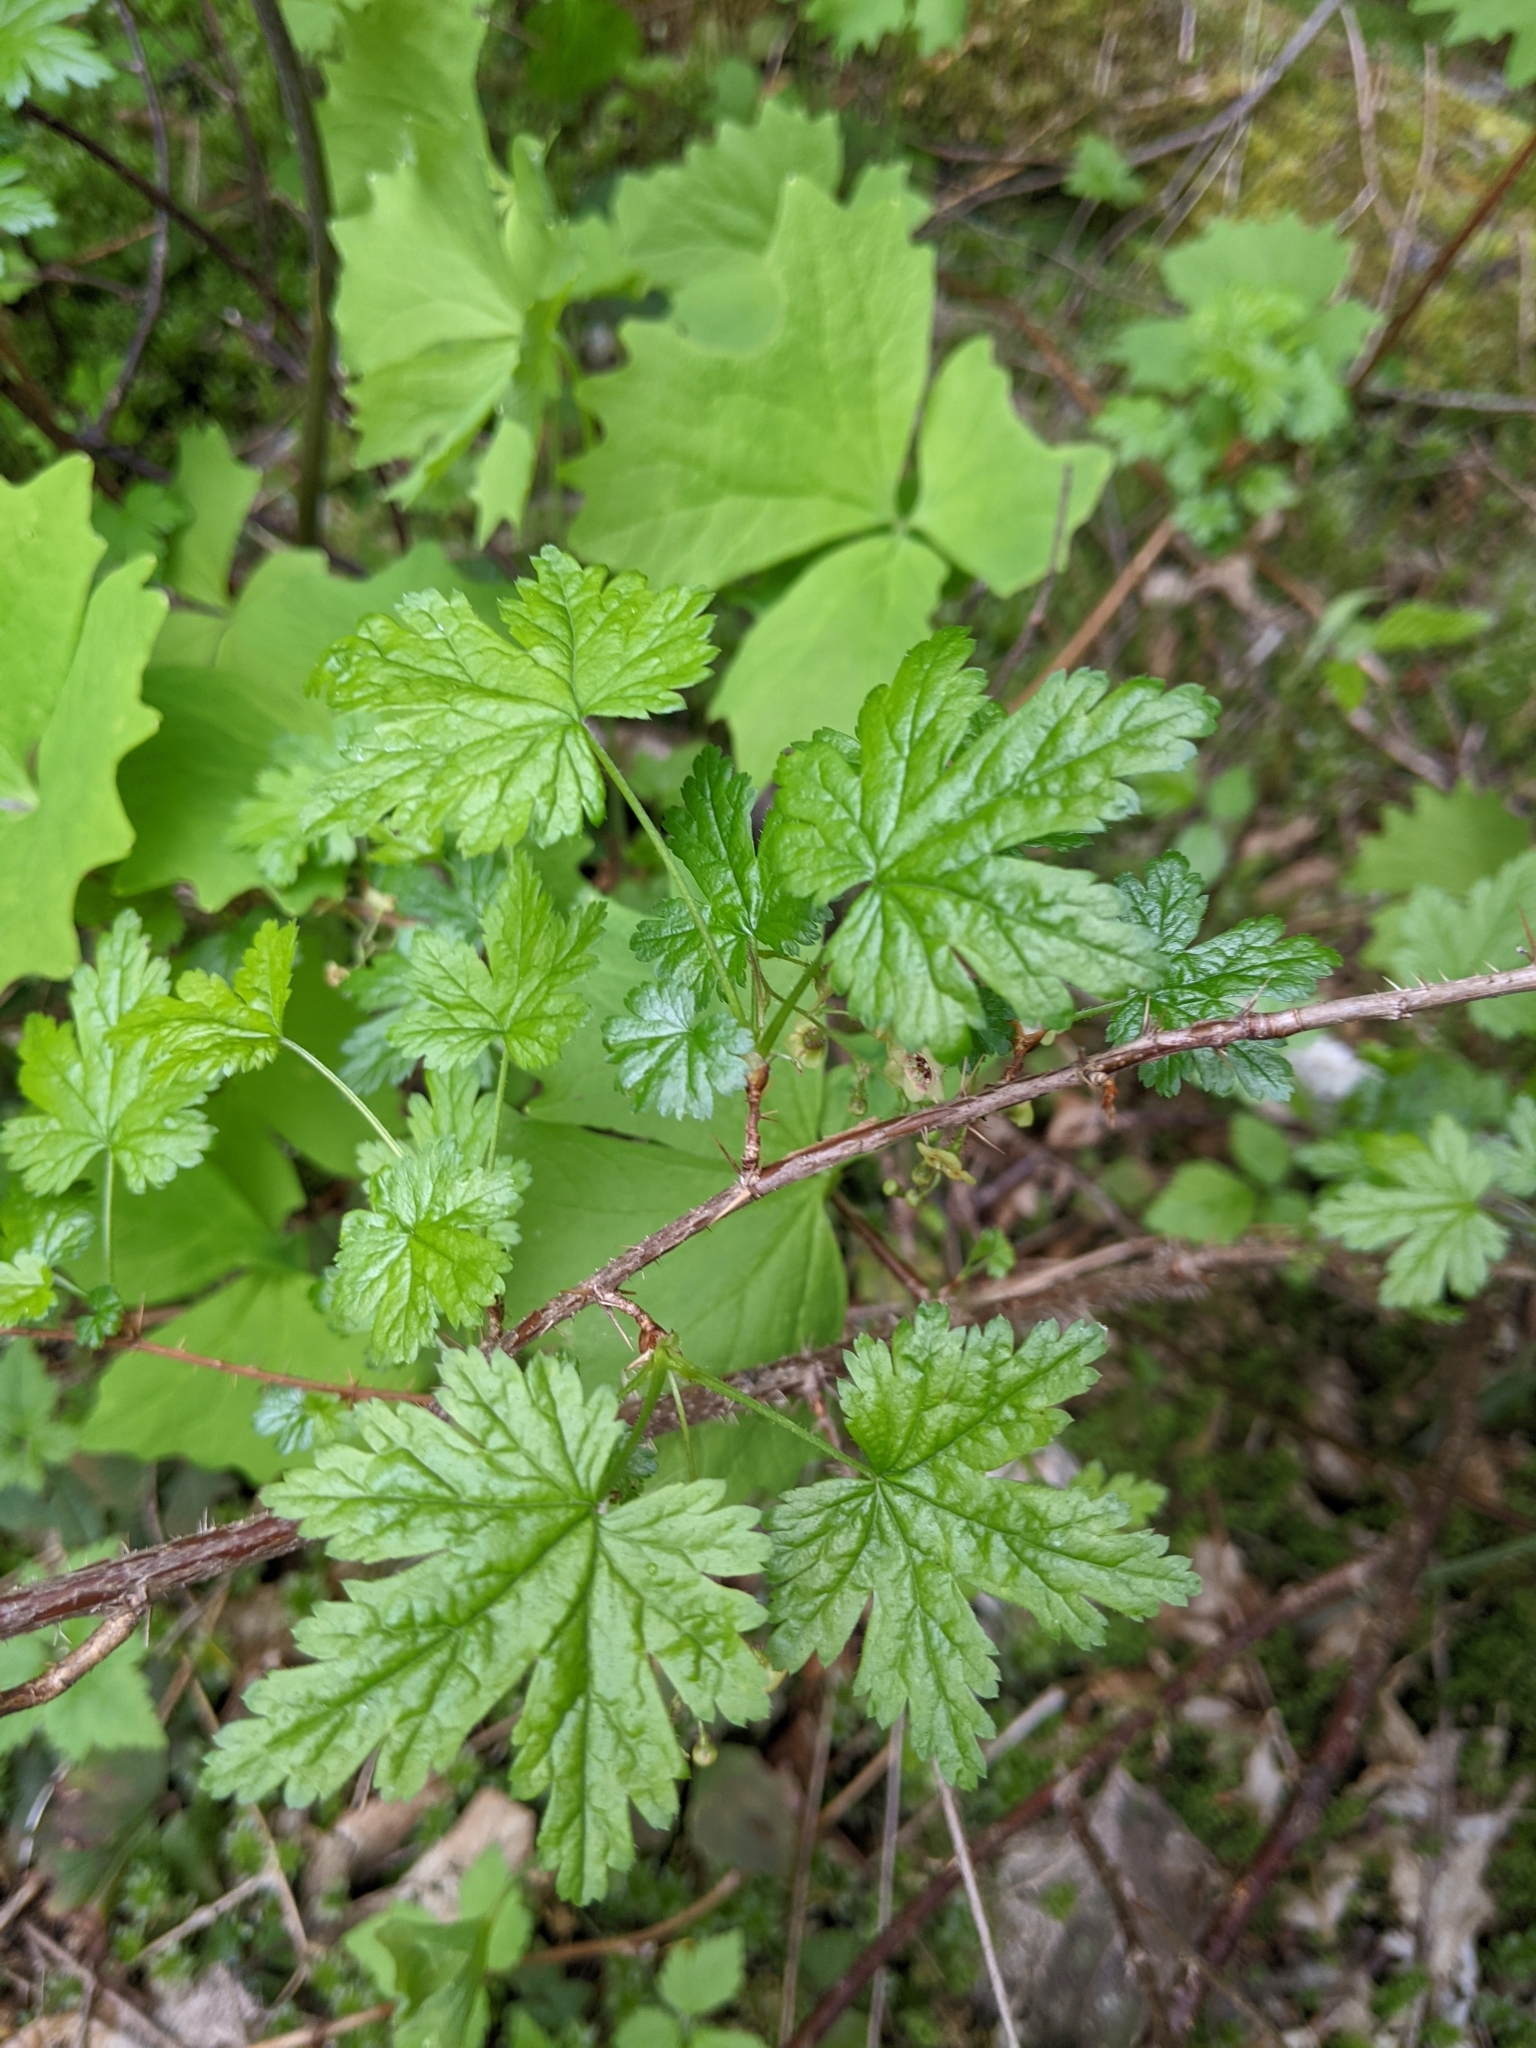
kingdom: Plantae
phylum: Tracheophyta
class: Magnoliopsida
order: Saxifragales
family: Grossulariaceae
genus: Ribes
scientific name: Ribes lacustre
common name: Black gooseberry
